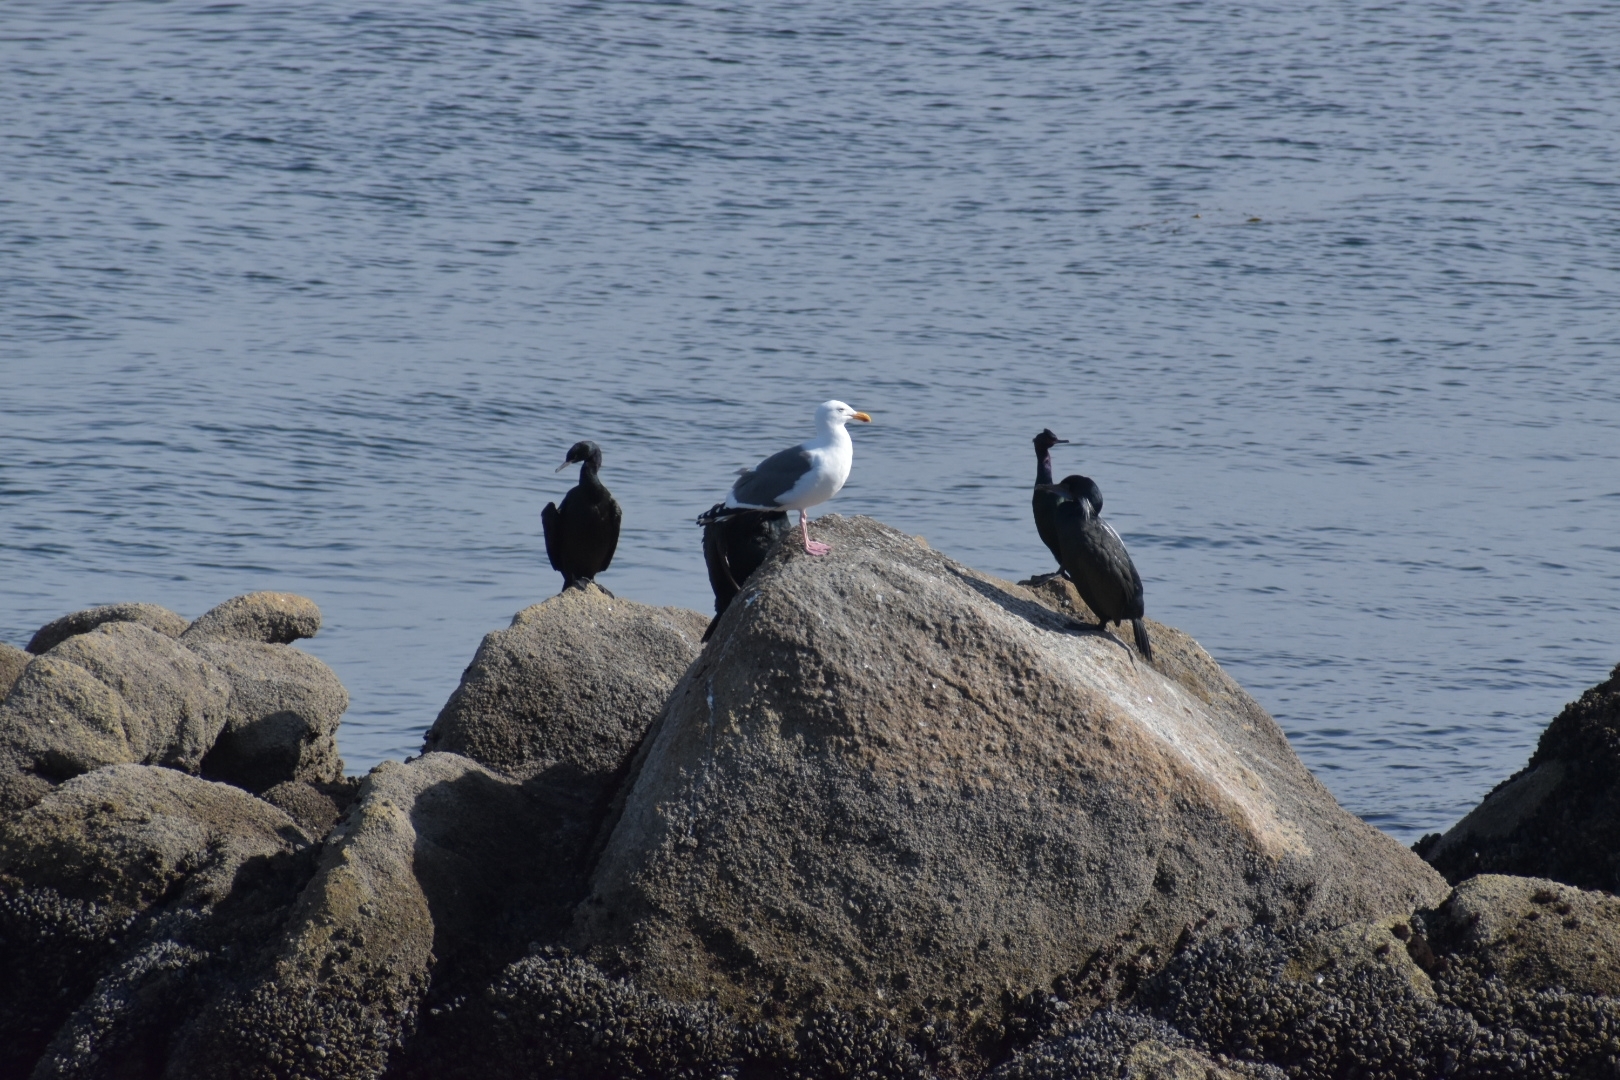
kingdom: Animalia
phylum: Chordata
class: Aves
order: Charadriiformes
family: Laridae
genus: Larus
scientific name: Larus occidentalis
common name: Western gull
